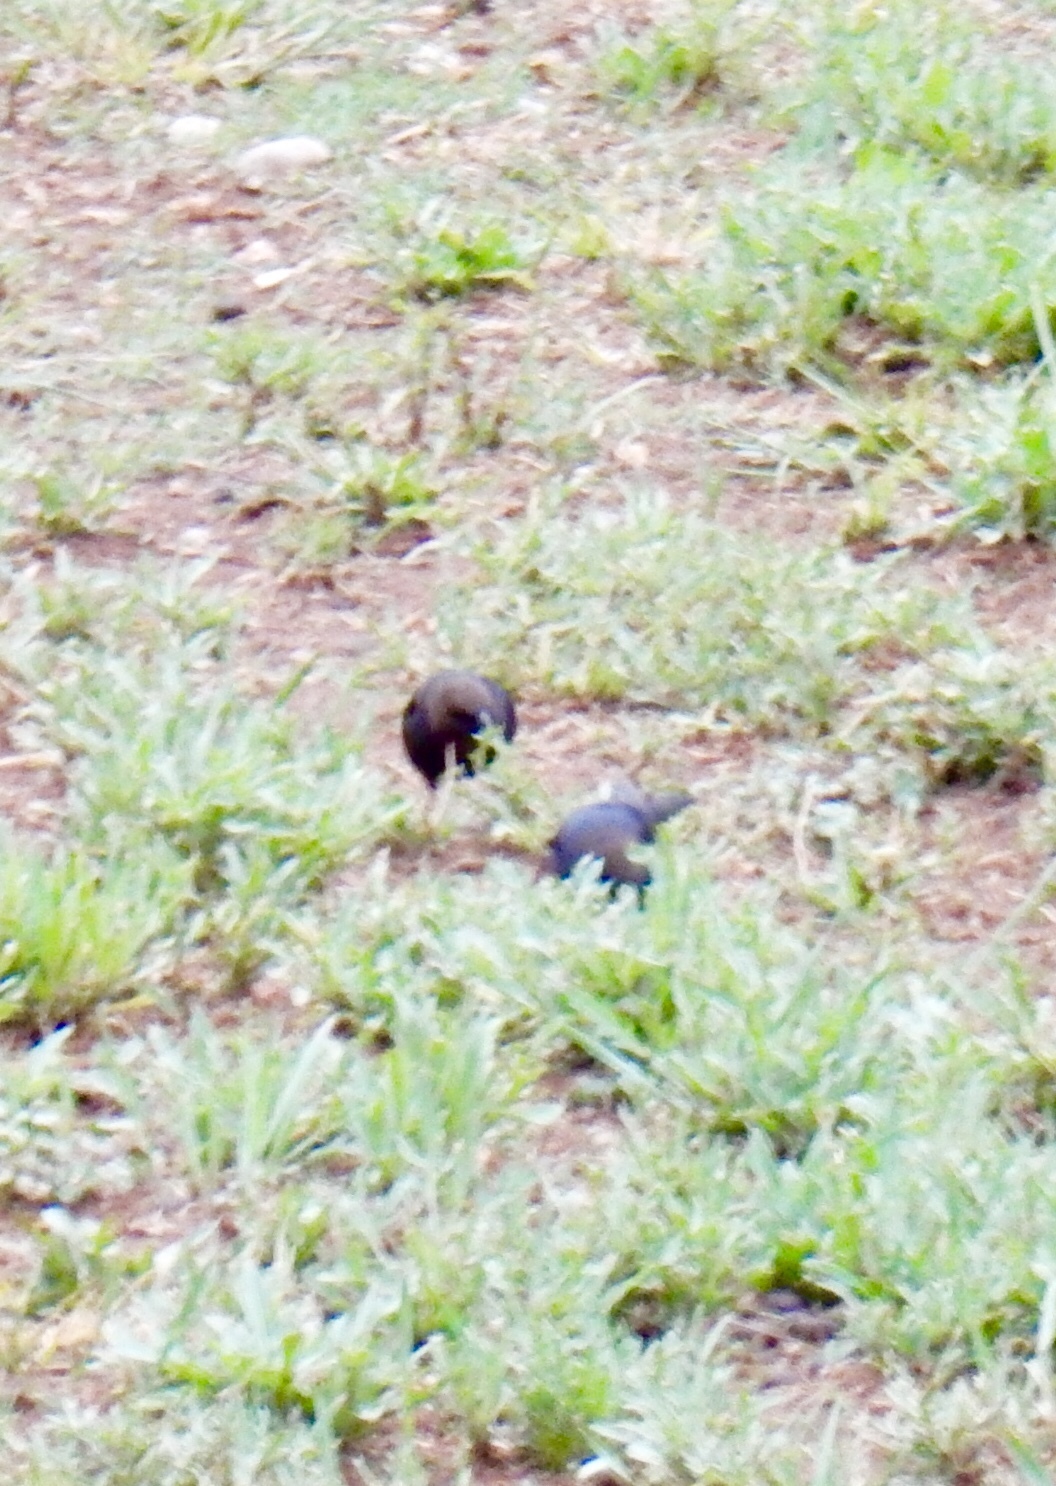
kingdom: Animalia
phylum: Chordata
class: Aves
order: Passeriformes
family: Icteridae
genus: Molothrus
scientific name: Molothrus ater
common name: Brown-headed cowbird
